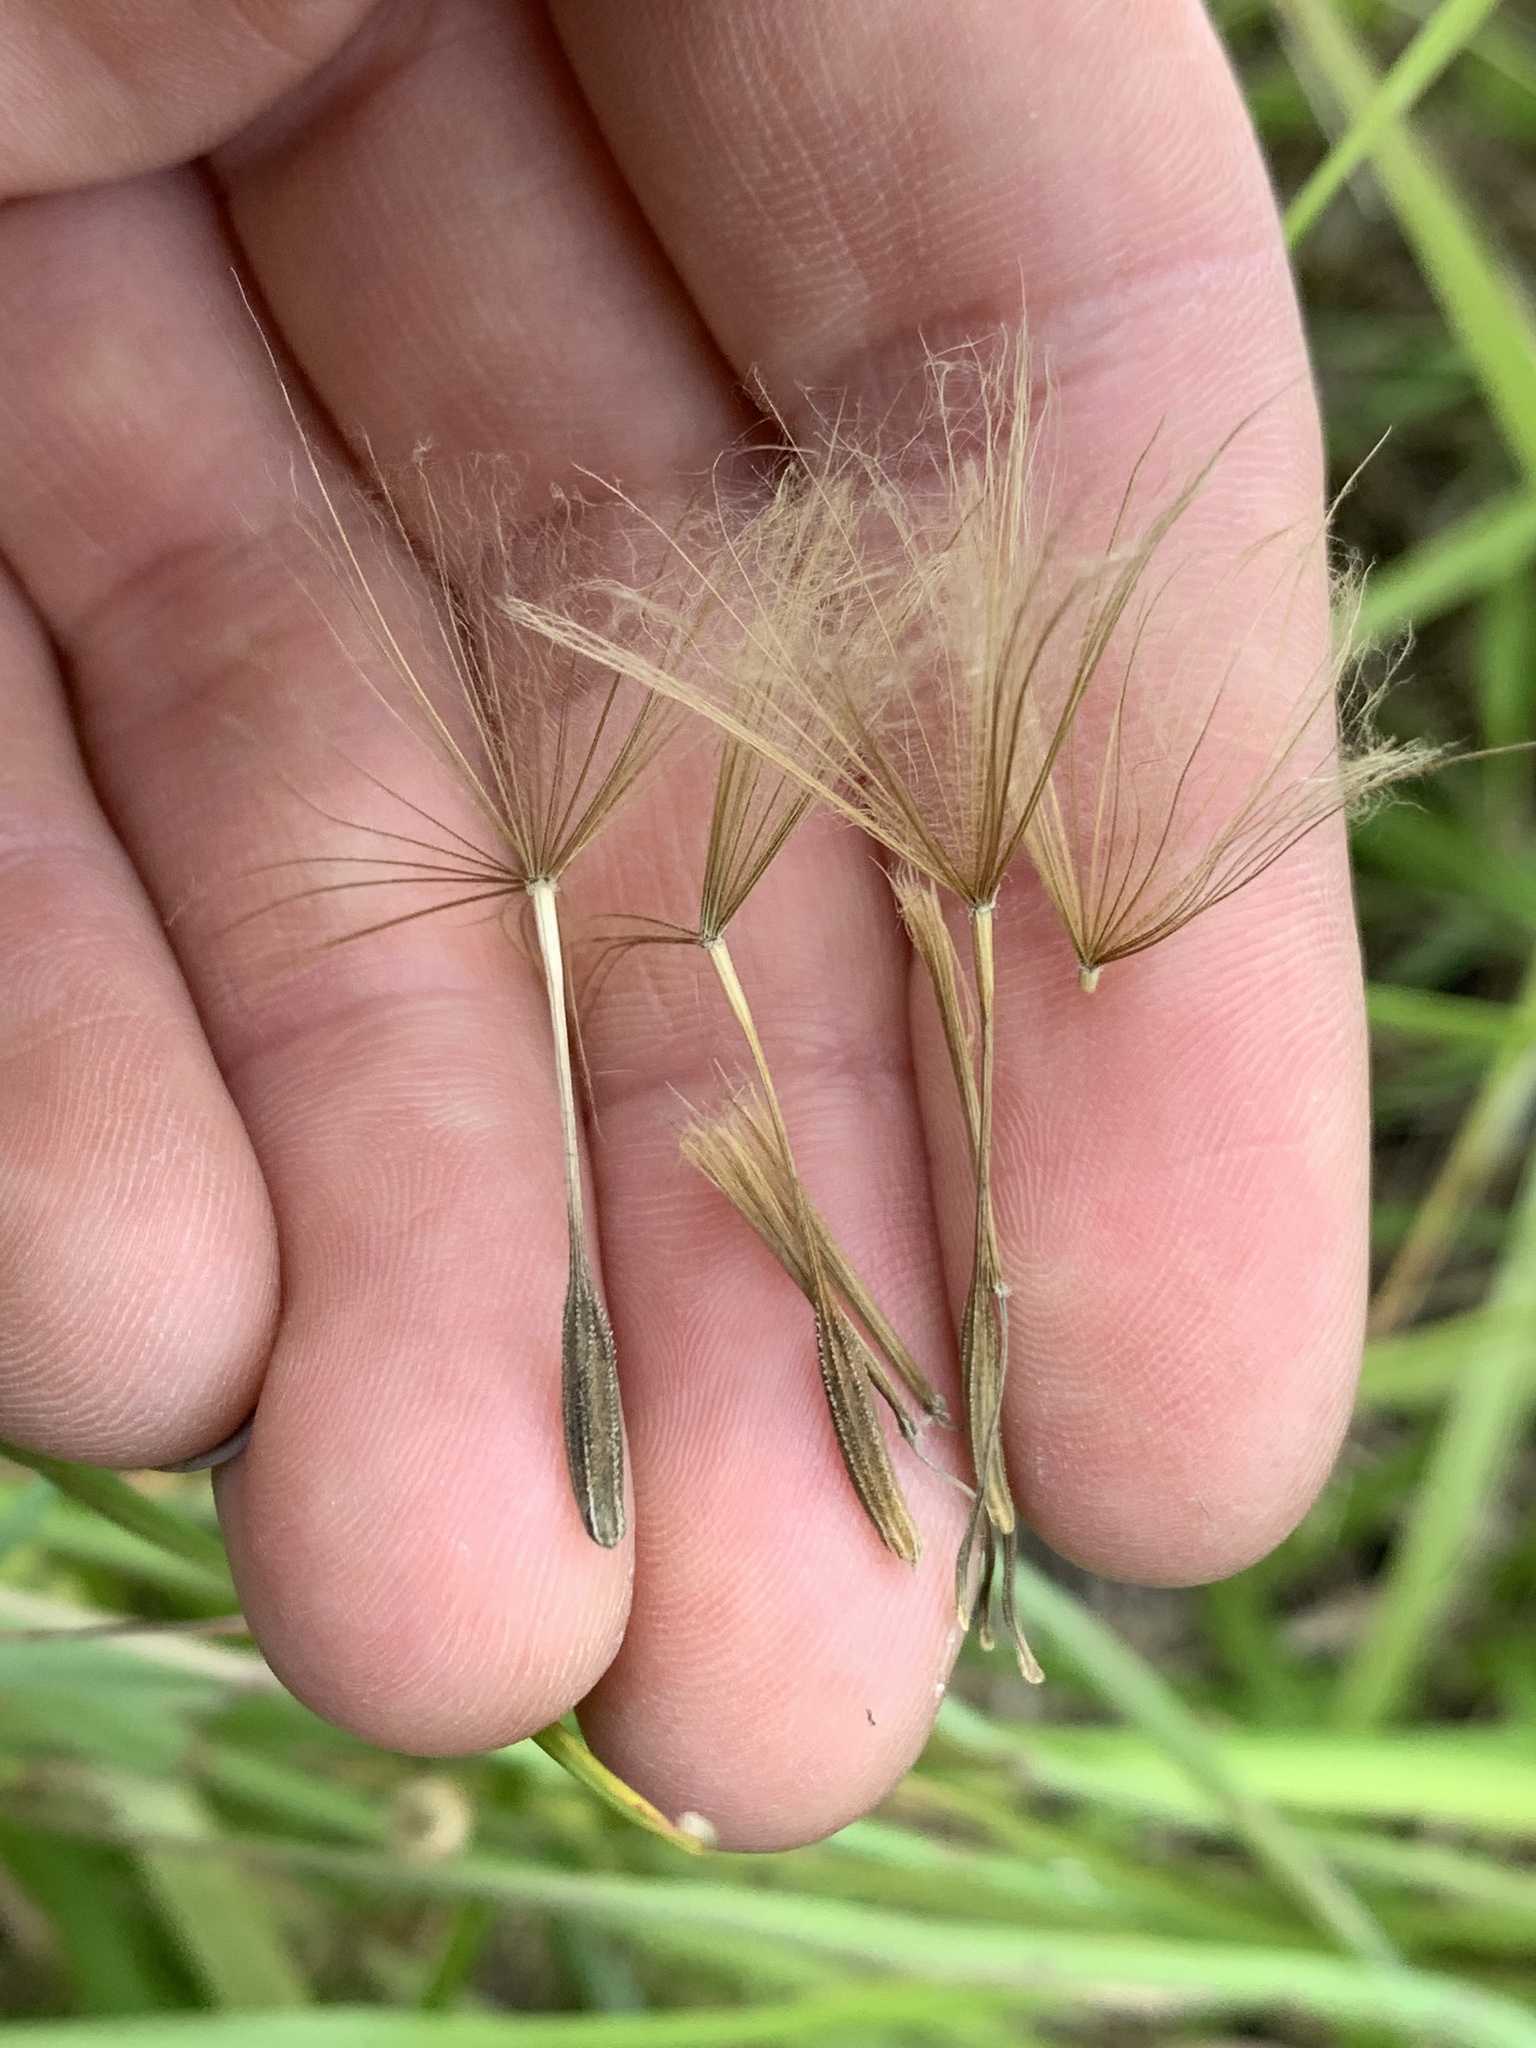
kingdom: Plantae
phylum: Tracheophyta
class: Magnoliopsida
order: Asterales
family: Asteraceae
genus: Tragopogon
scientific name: Tragopogon porrifolius
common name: Salsify
